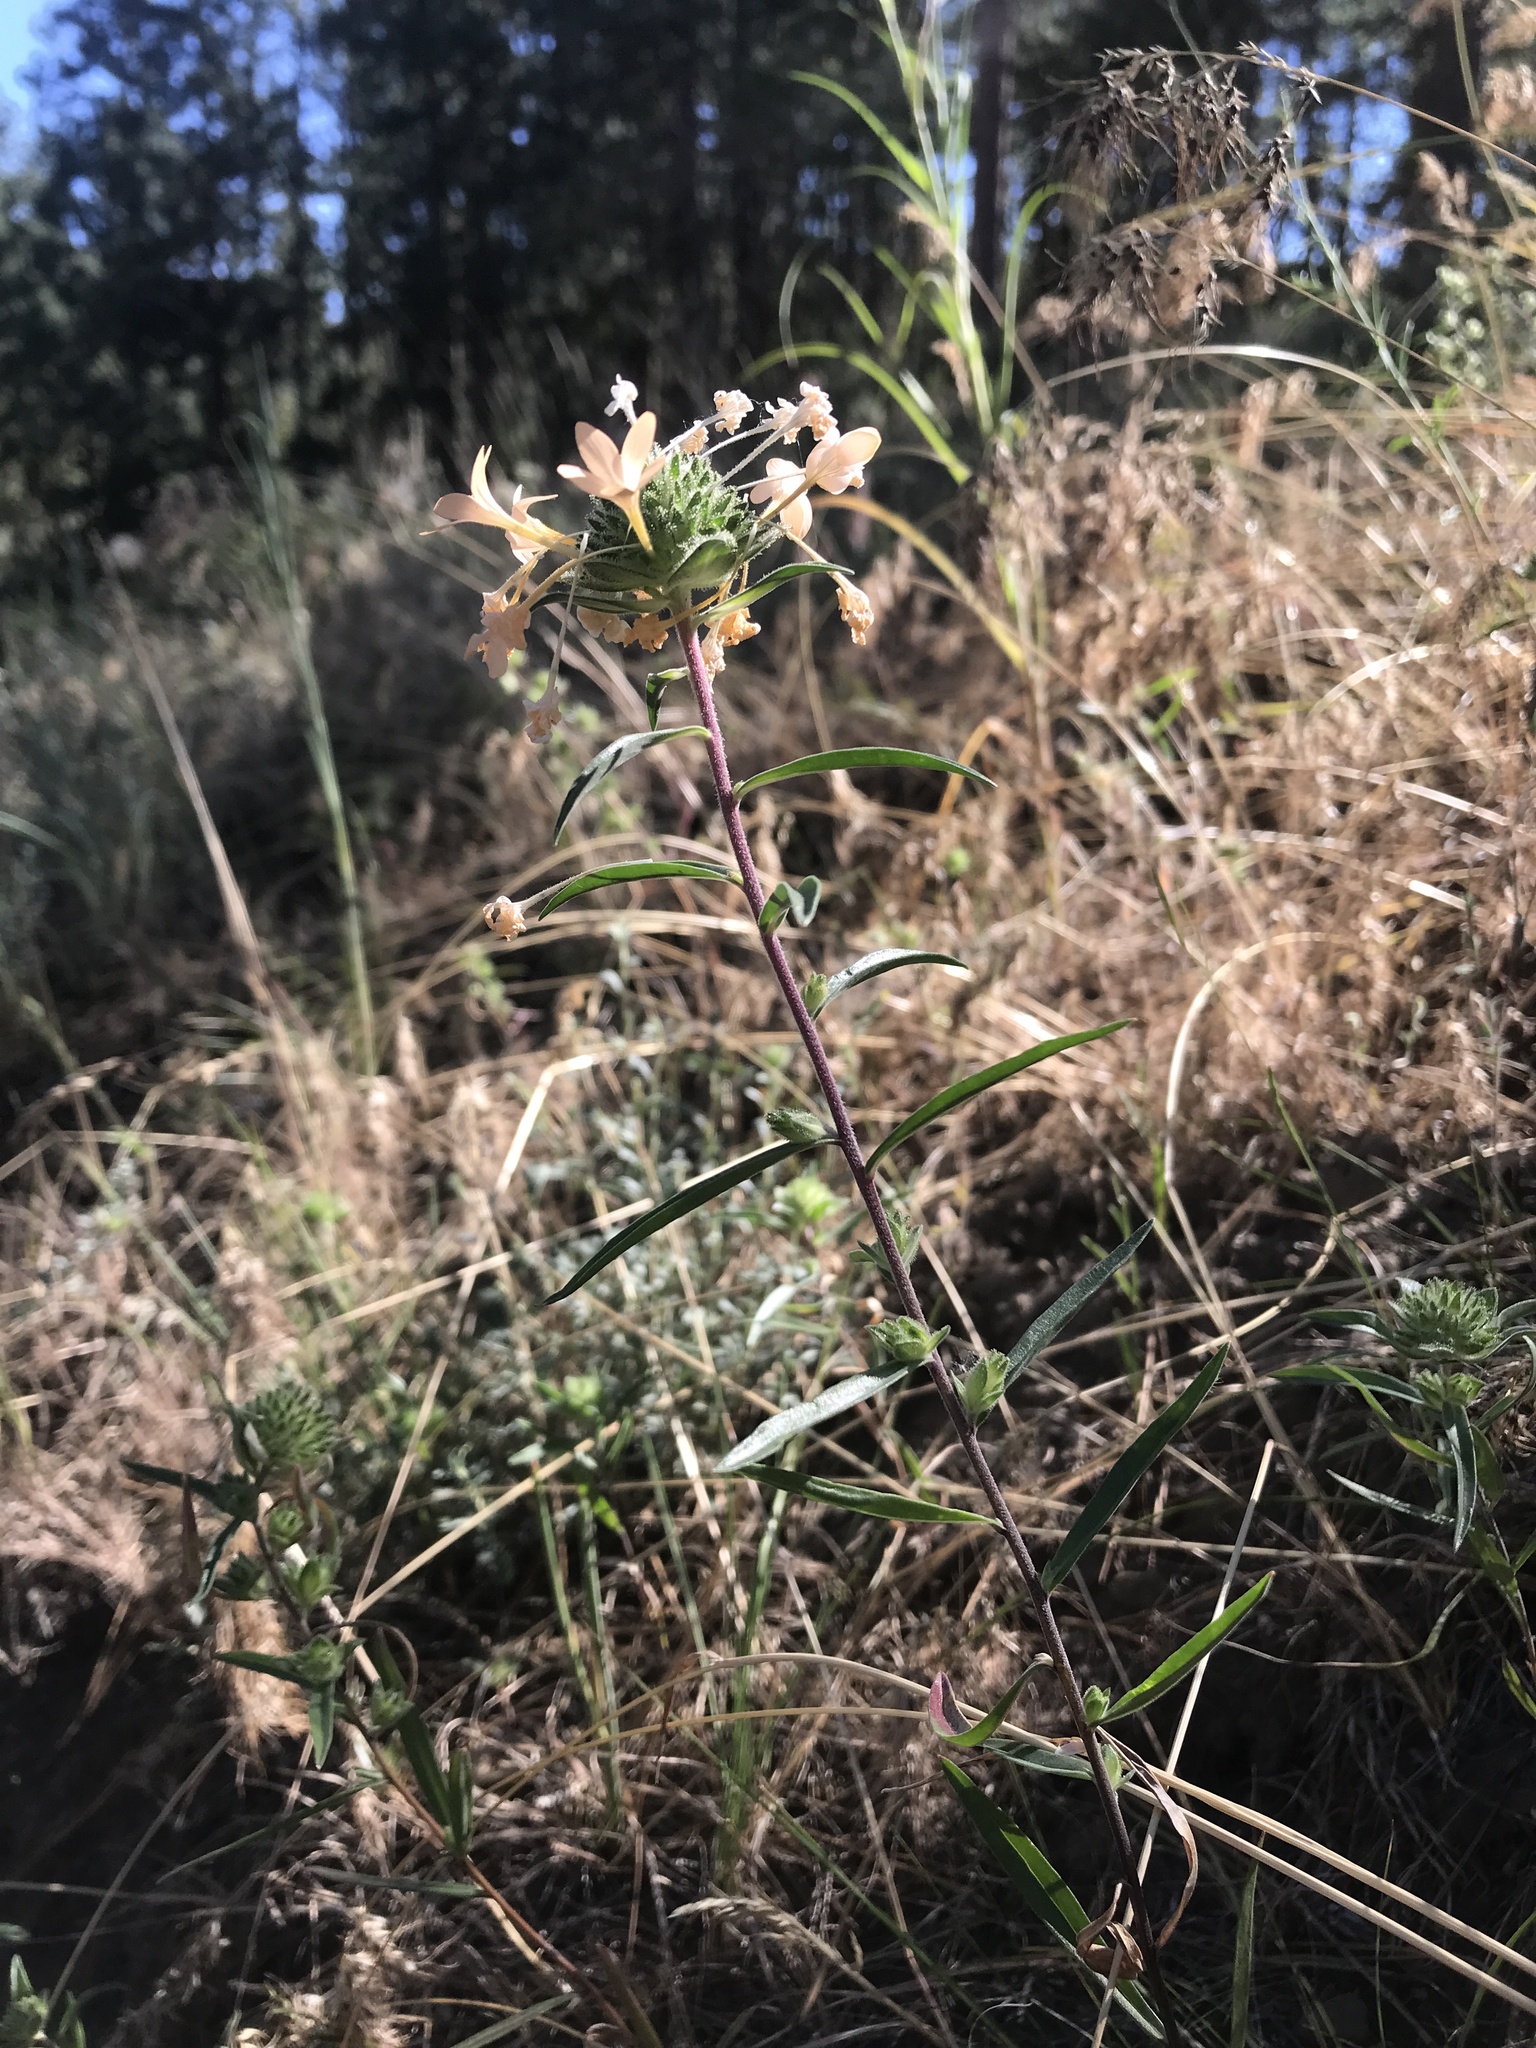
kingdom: Plantae
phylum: Tracheophyta
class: Magnoliopsida
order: Ericales
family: Polemoniaceae
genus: Collomia
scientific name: Collomia grandiflora
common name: California strawflower
